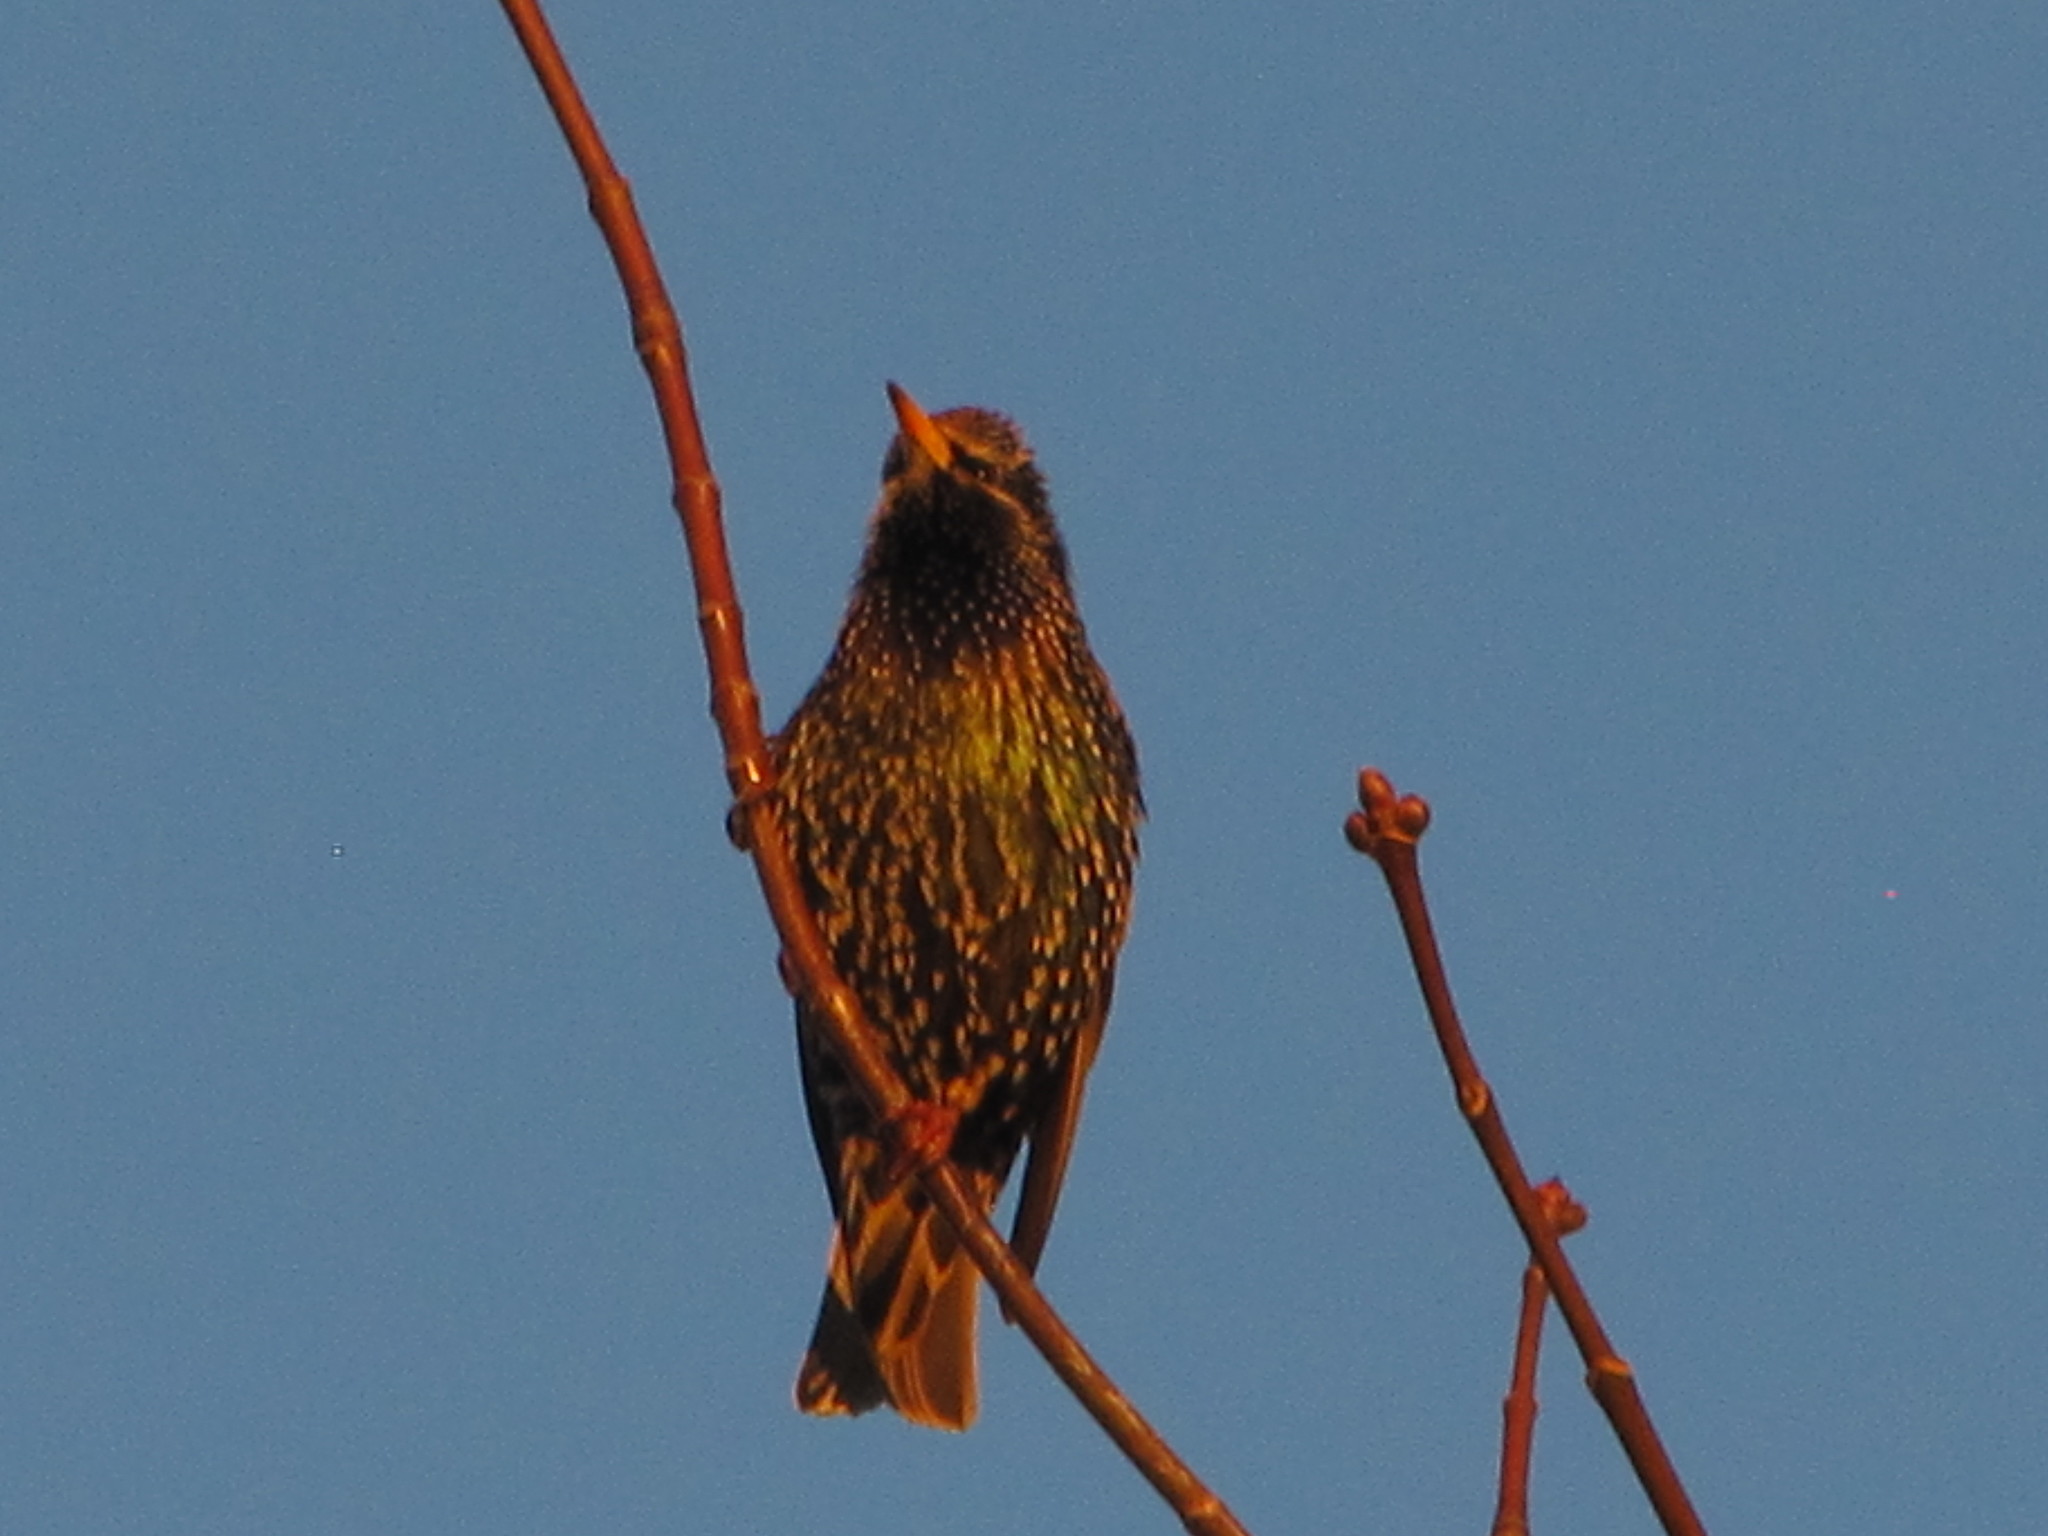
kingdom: Animalia
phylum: Chordata
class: Aves
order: Passeriformes
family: Sturnidae
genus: Sturnus
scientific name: Sturnus vulgaris
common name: Common starling
